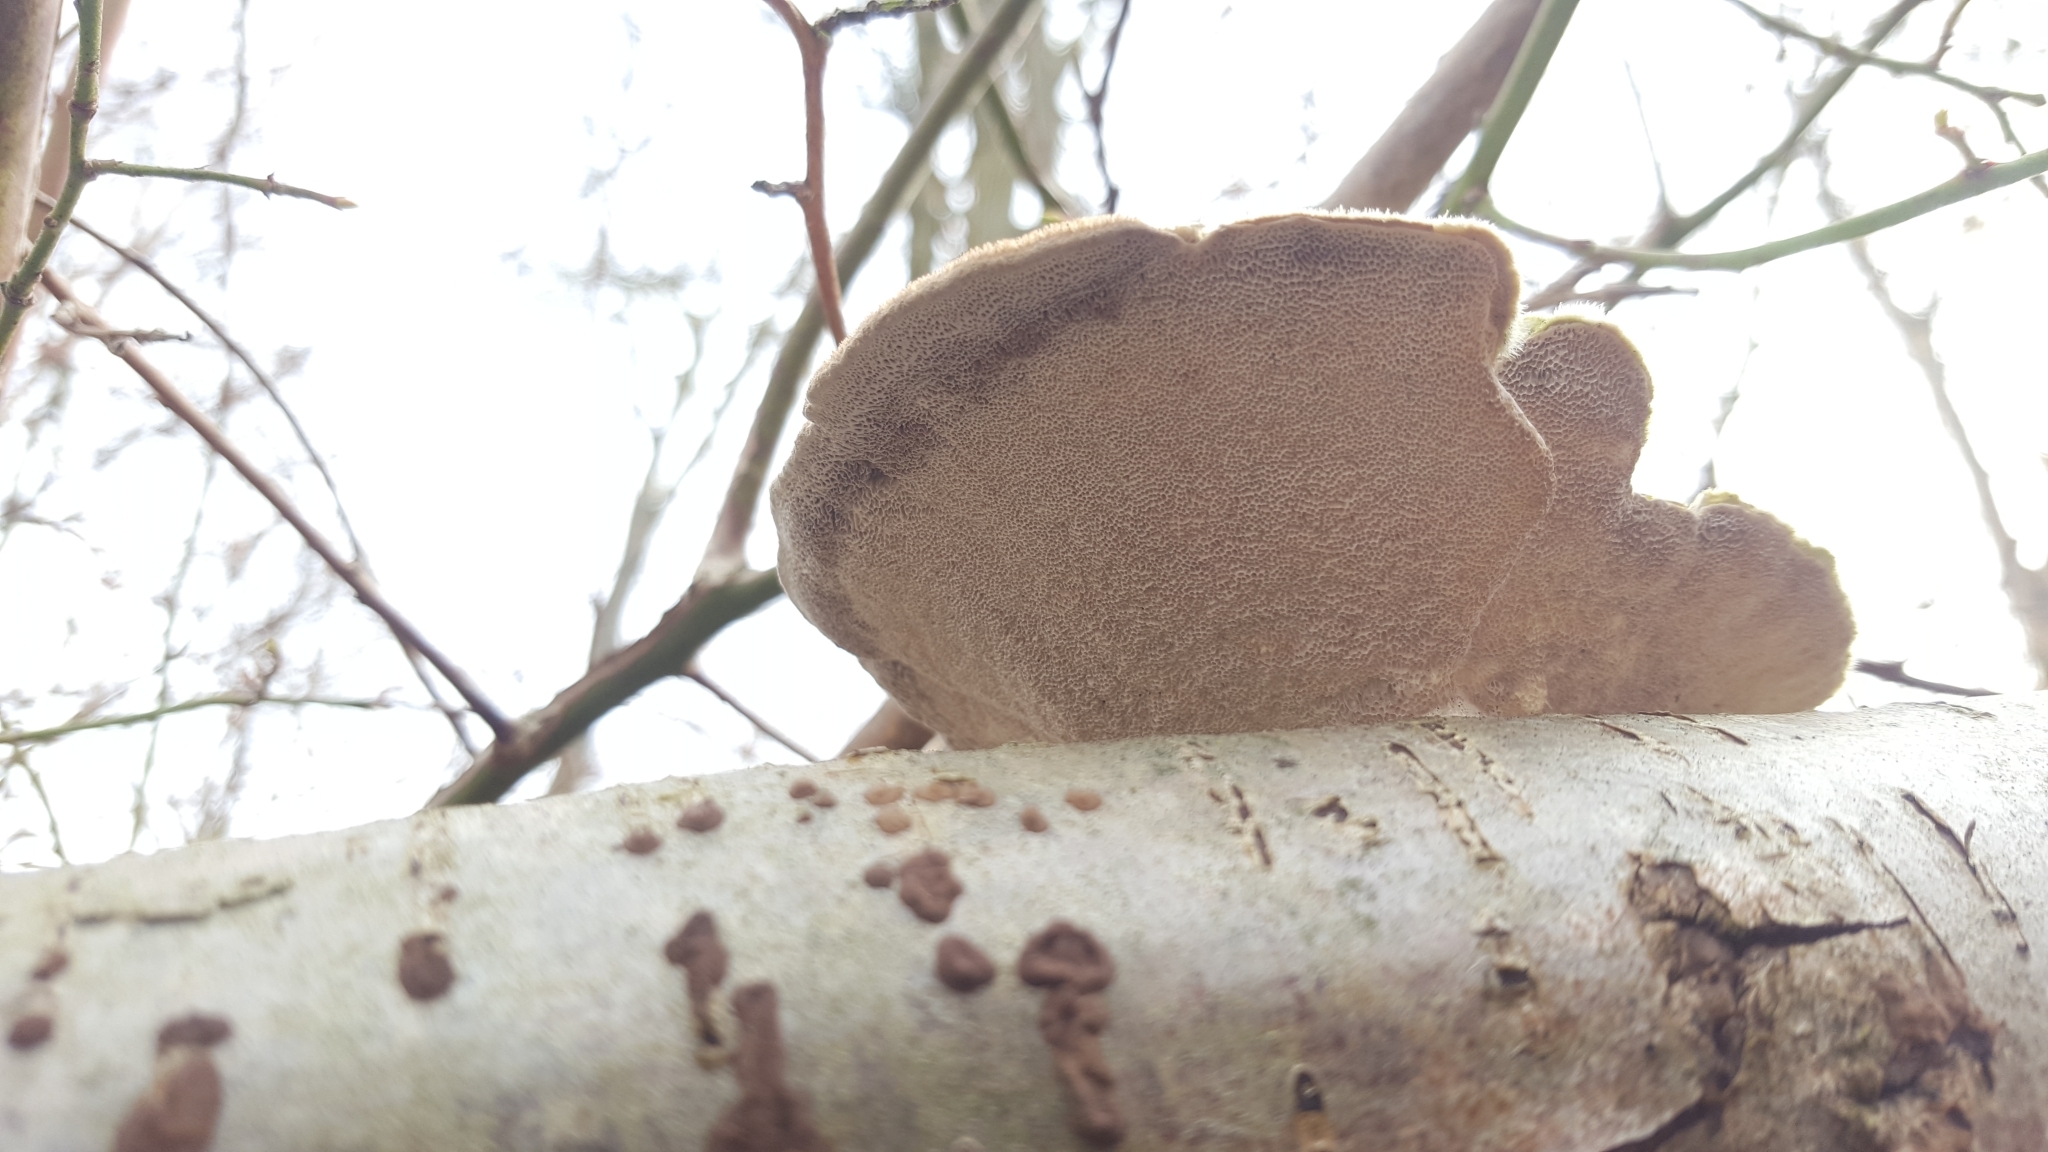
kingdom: Fungi
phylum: Basidiomycota
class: Agaricomycetes
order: Polyporales
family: Polyporaceae
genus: Trametes
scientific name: Trametes hirsuta
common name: Hairy bracket
